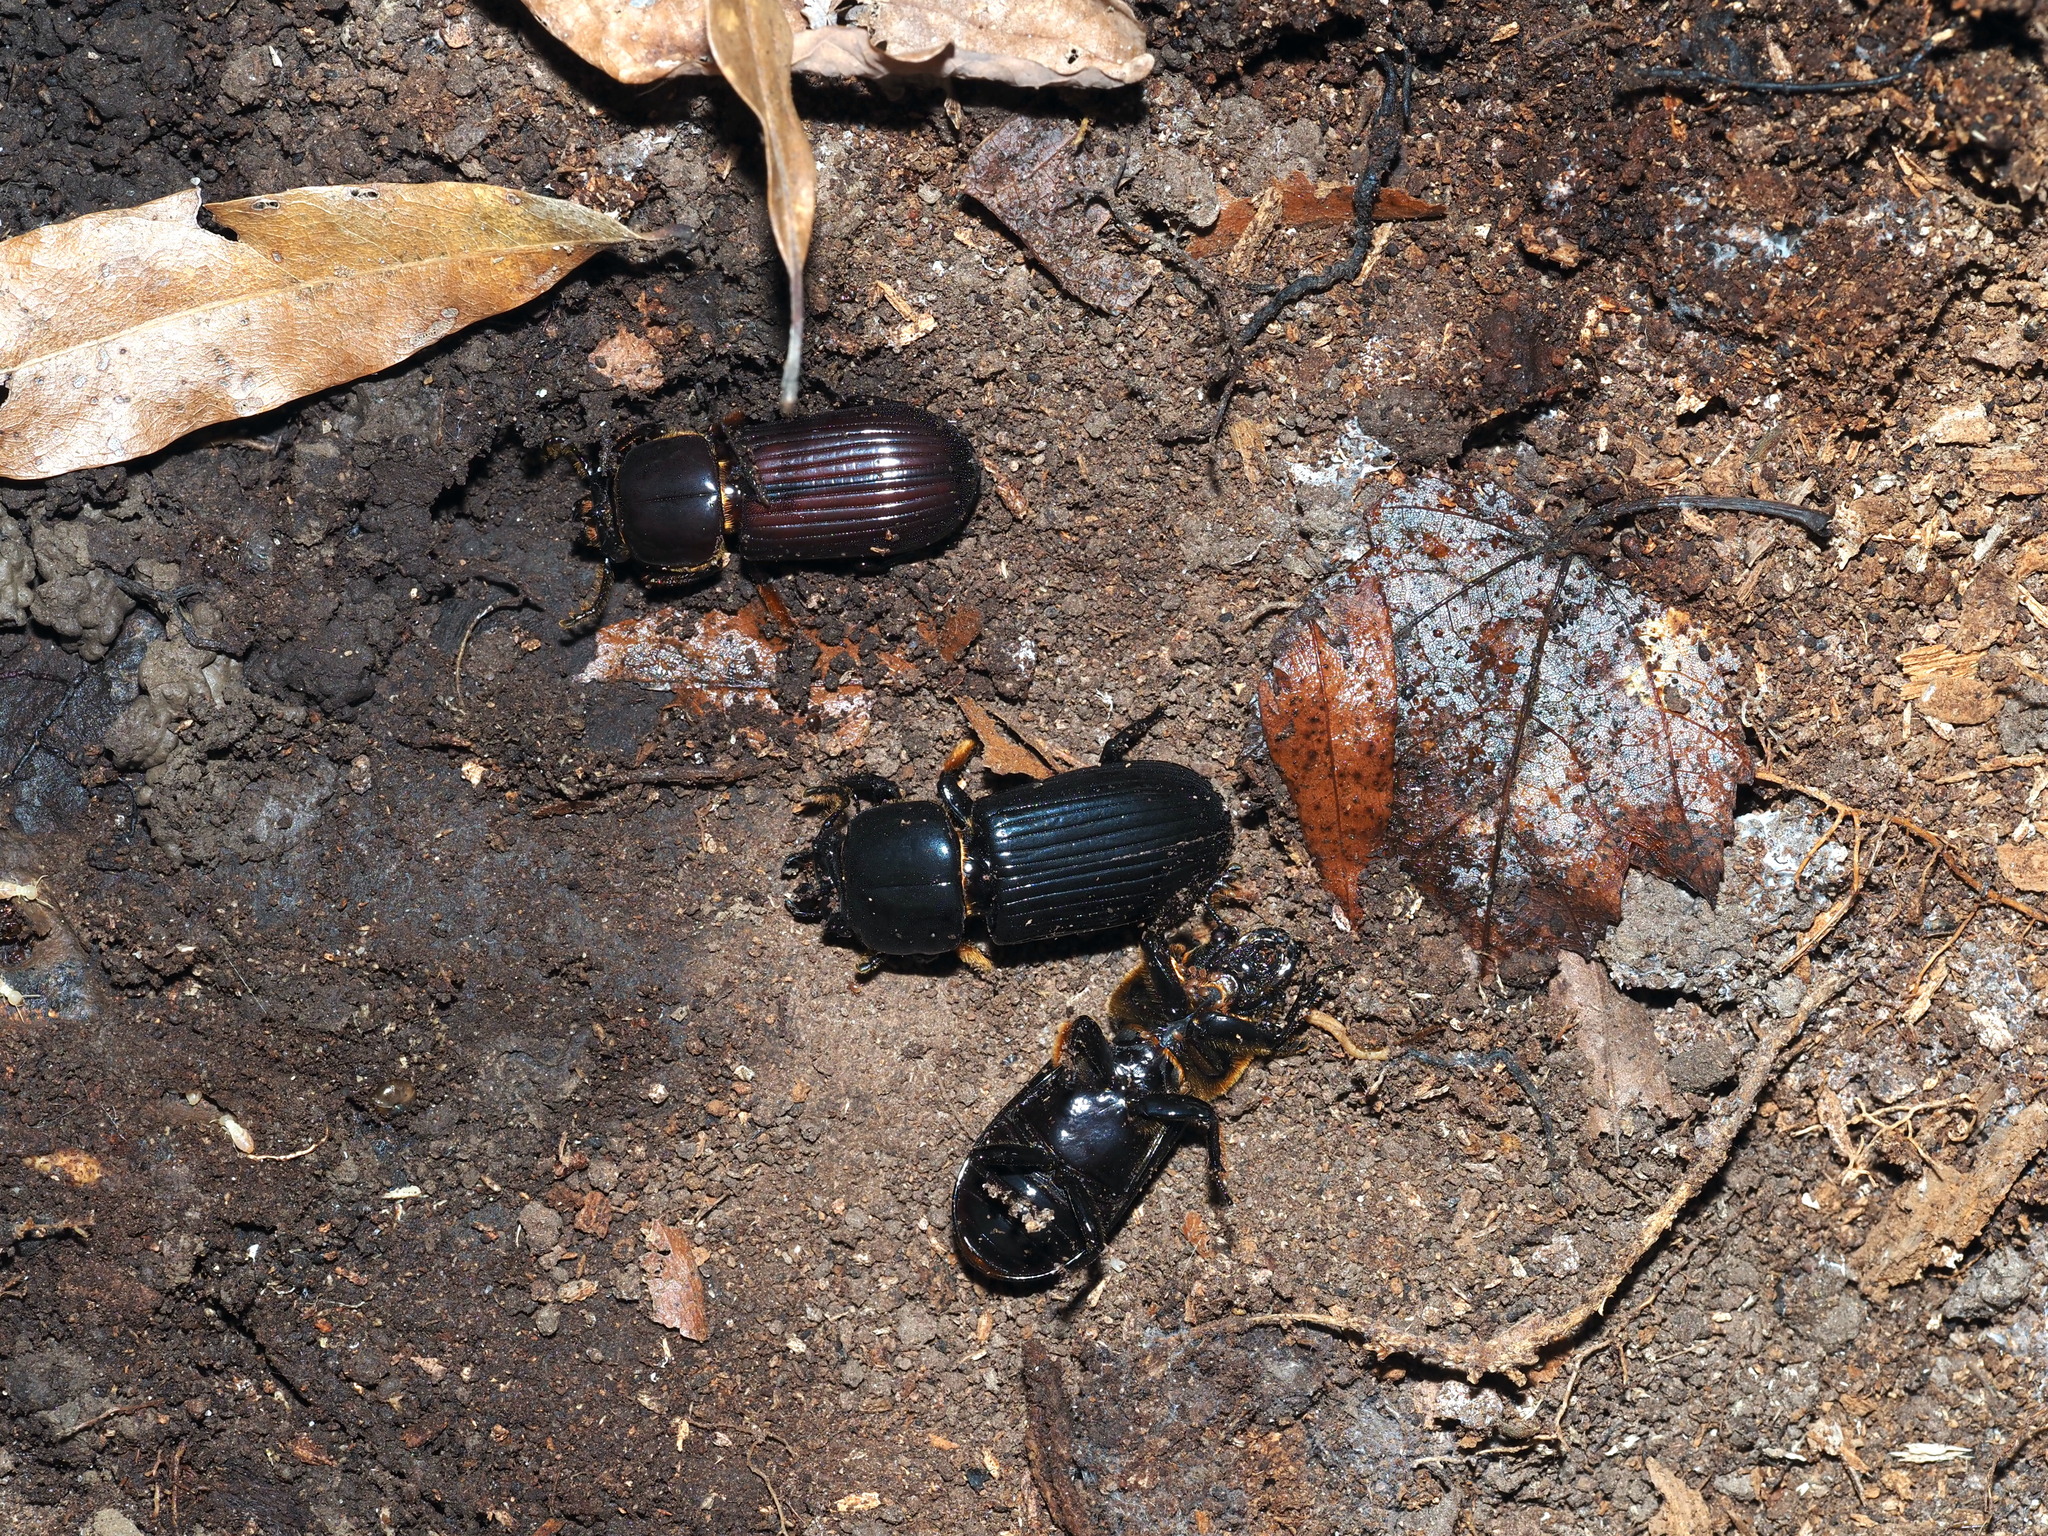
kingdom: Animalia
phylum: Arthropoda
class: Insecta
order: Coleoptera
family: Passalidae
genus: Odontotaenius
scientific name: Odontotaenius disjunctus
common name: Patent leather beetle
